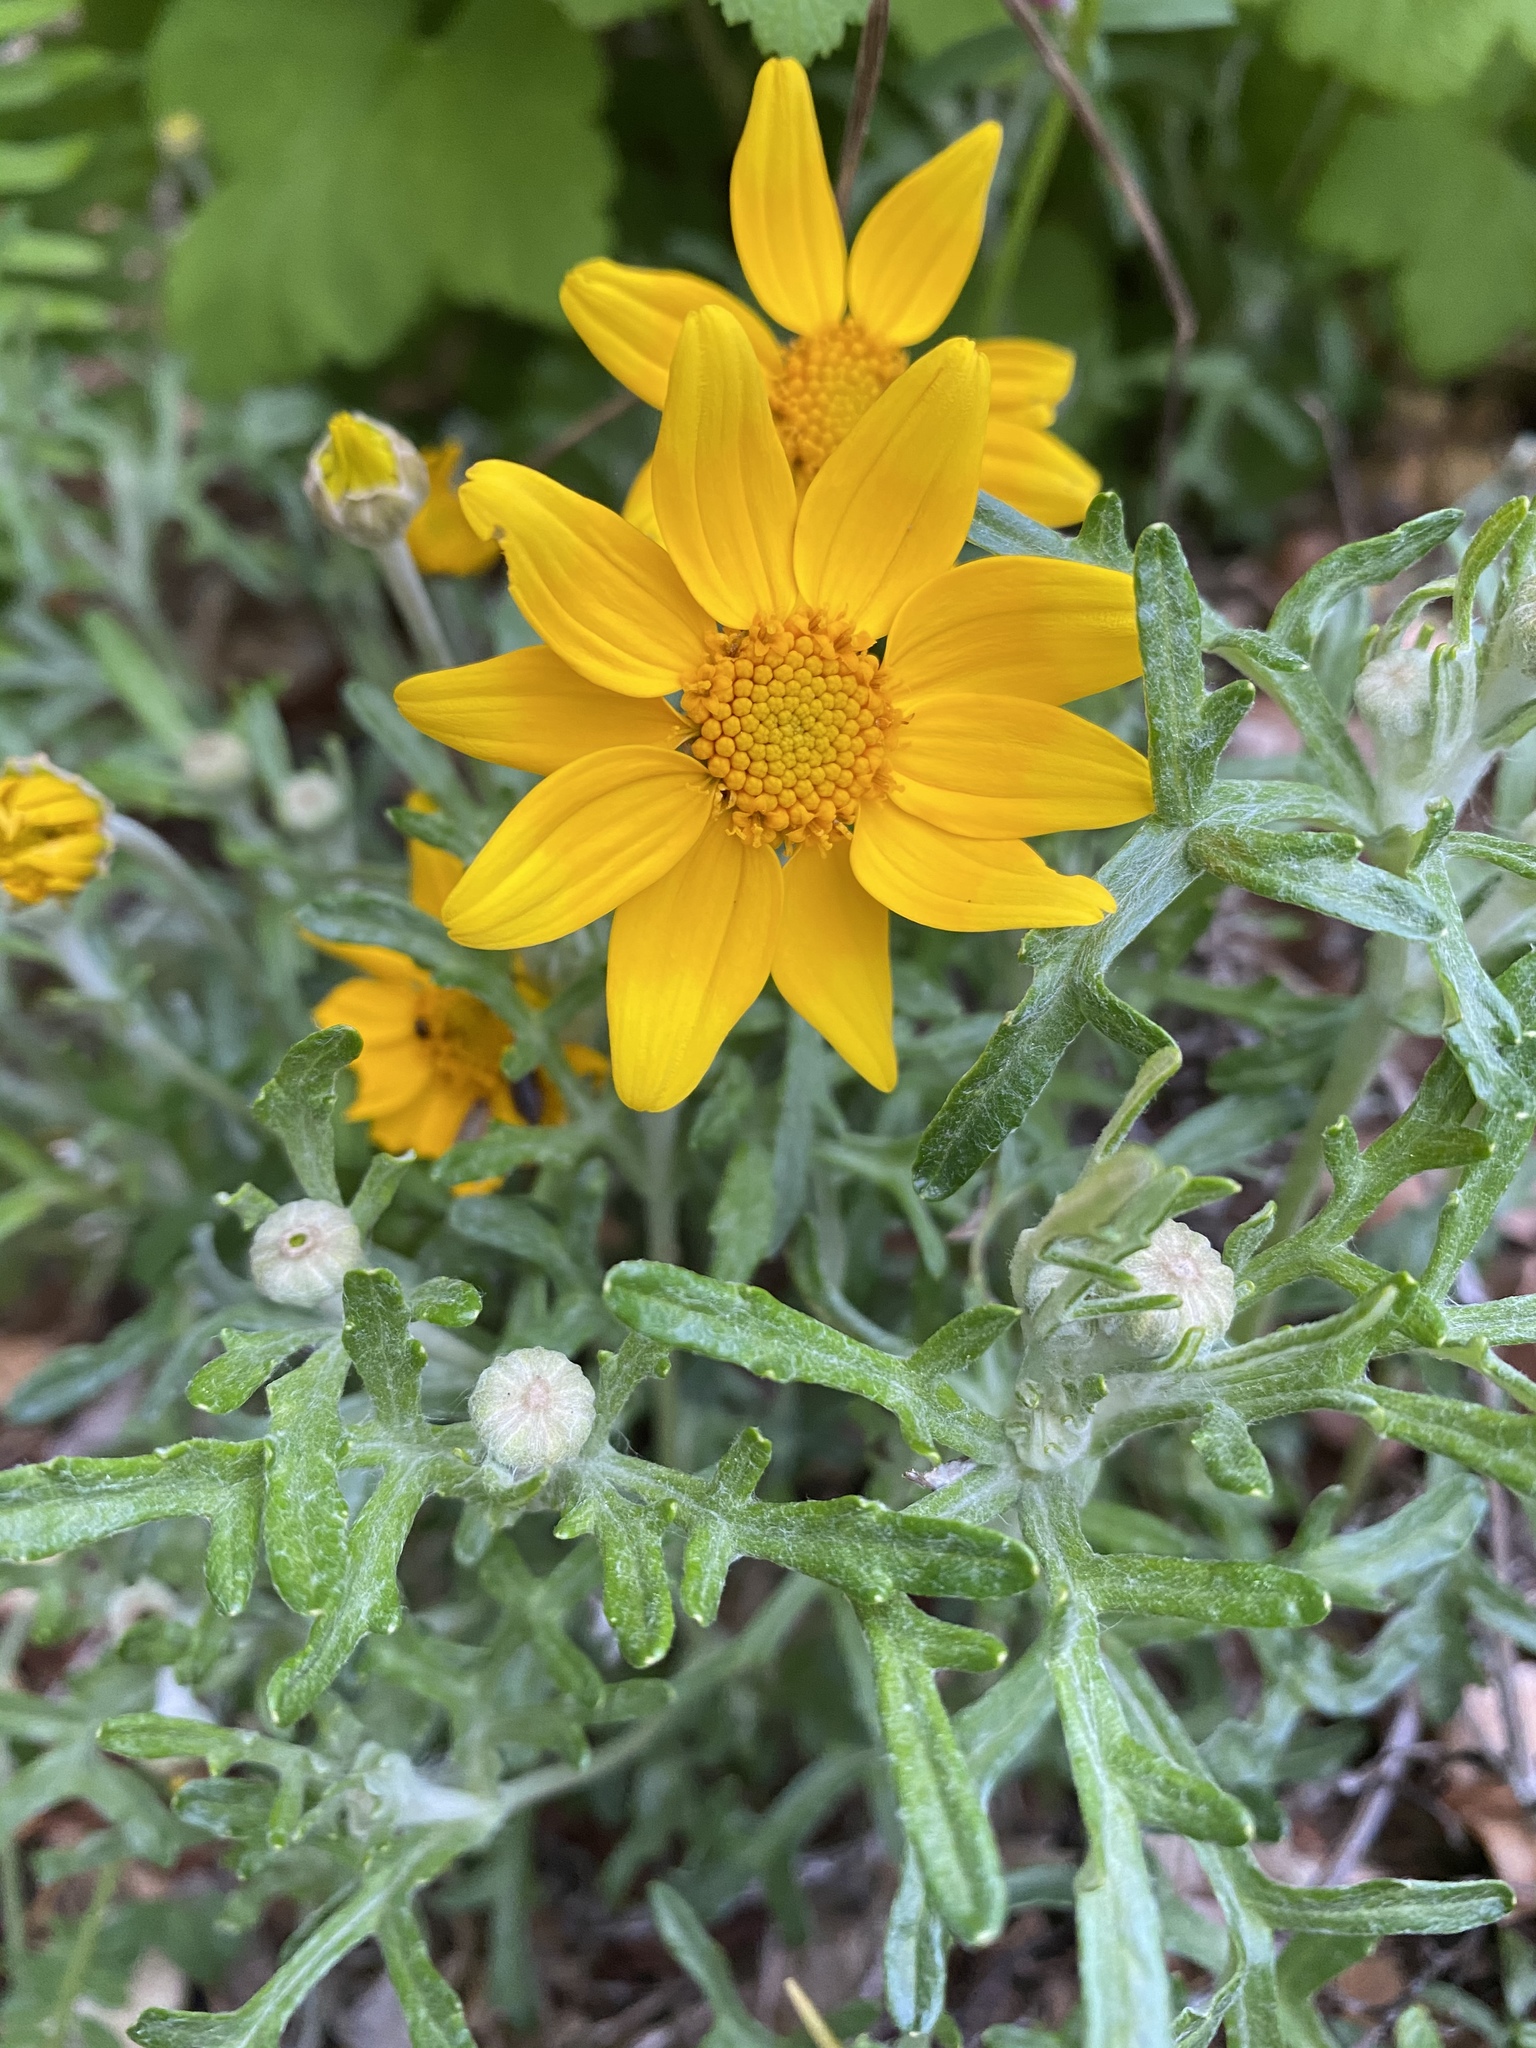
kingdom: Plantae
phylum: Tracheophyta
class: Magnoliopsida
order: Asterales
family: Asteraceae
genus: Eriophyllum
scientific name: Eriophyllum lanatum
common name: Common woolly-sunflower
